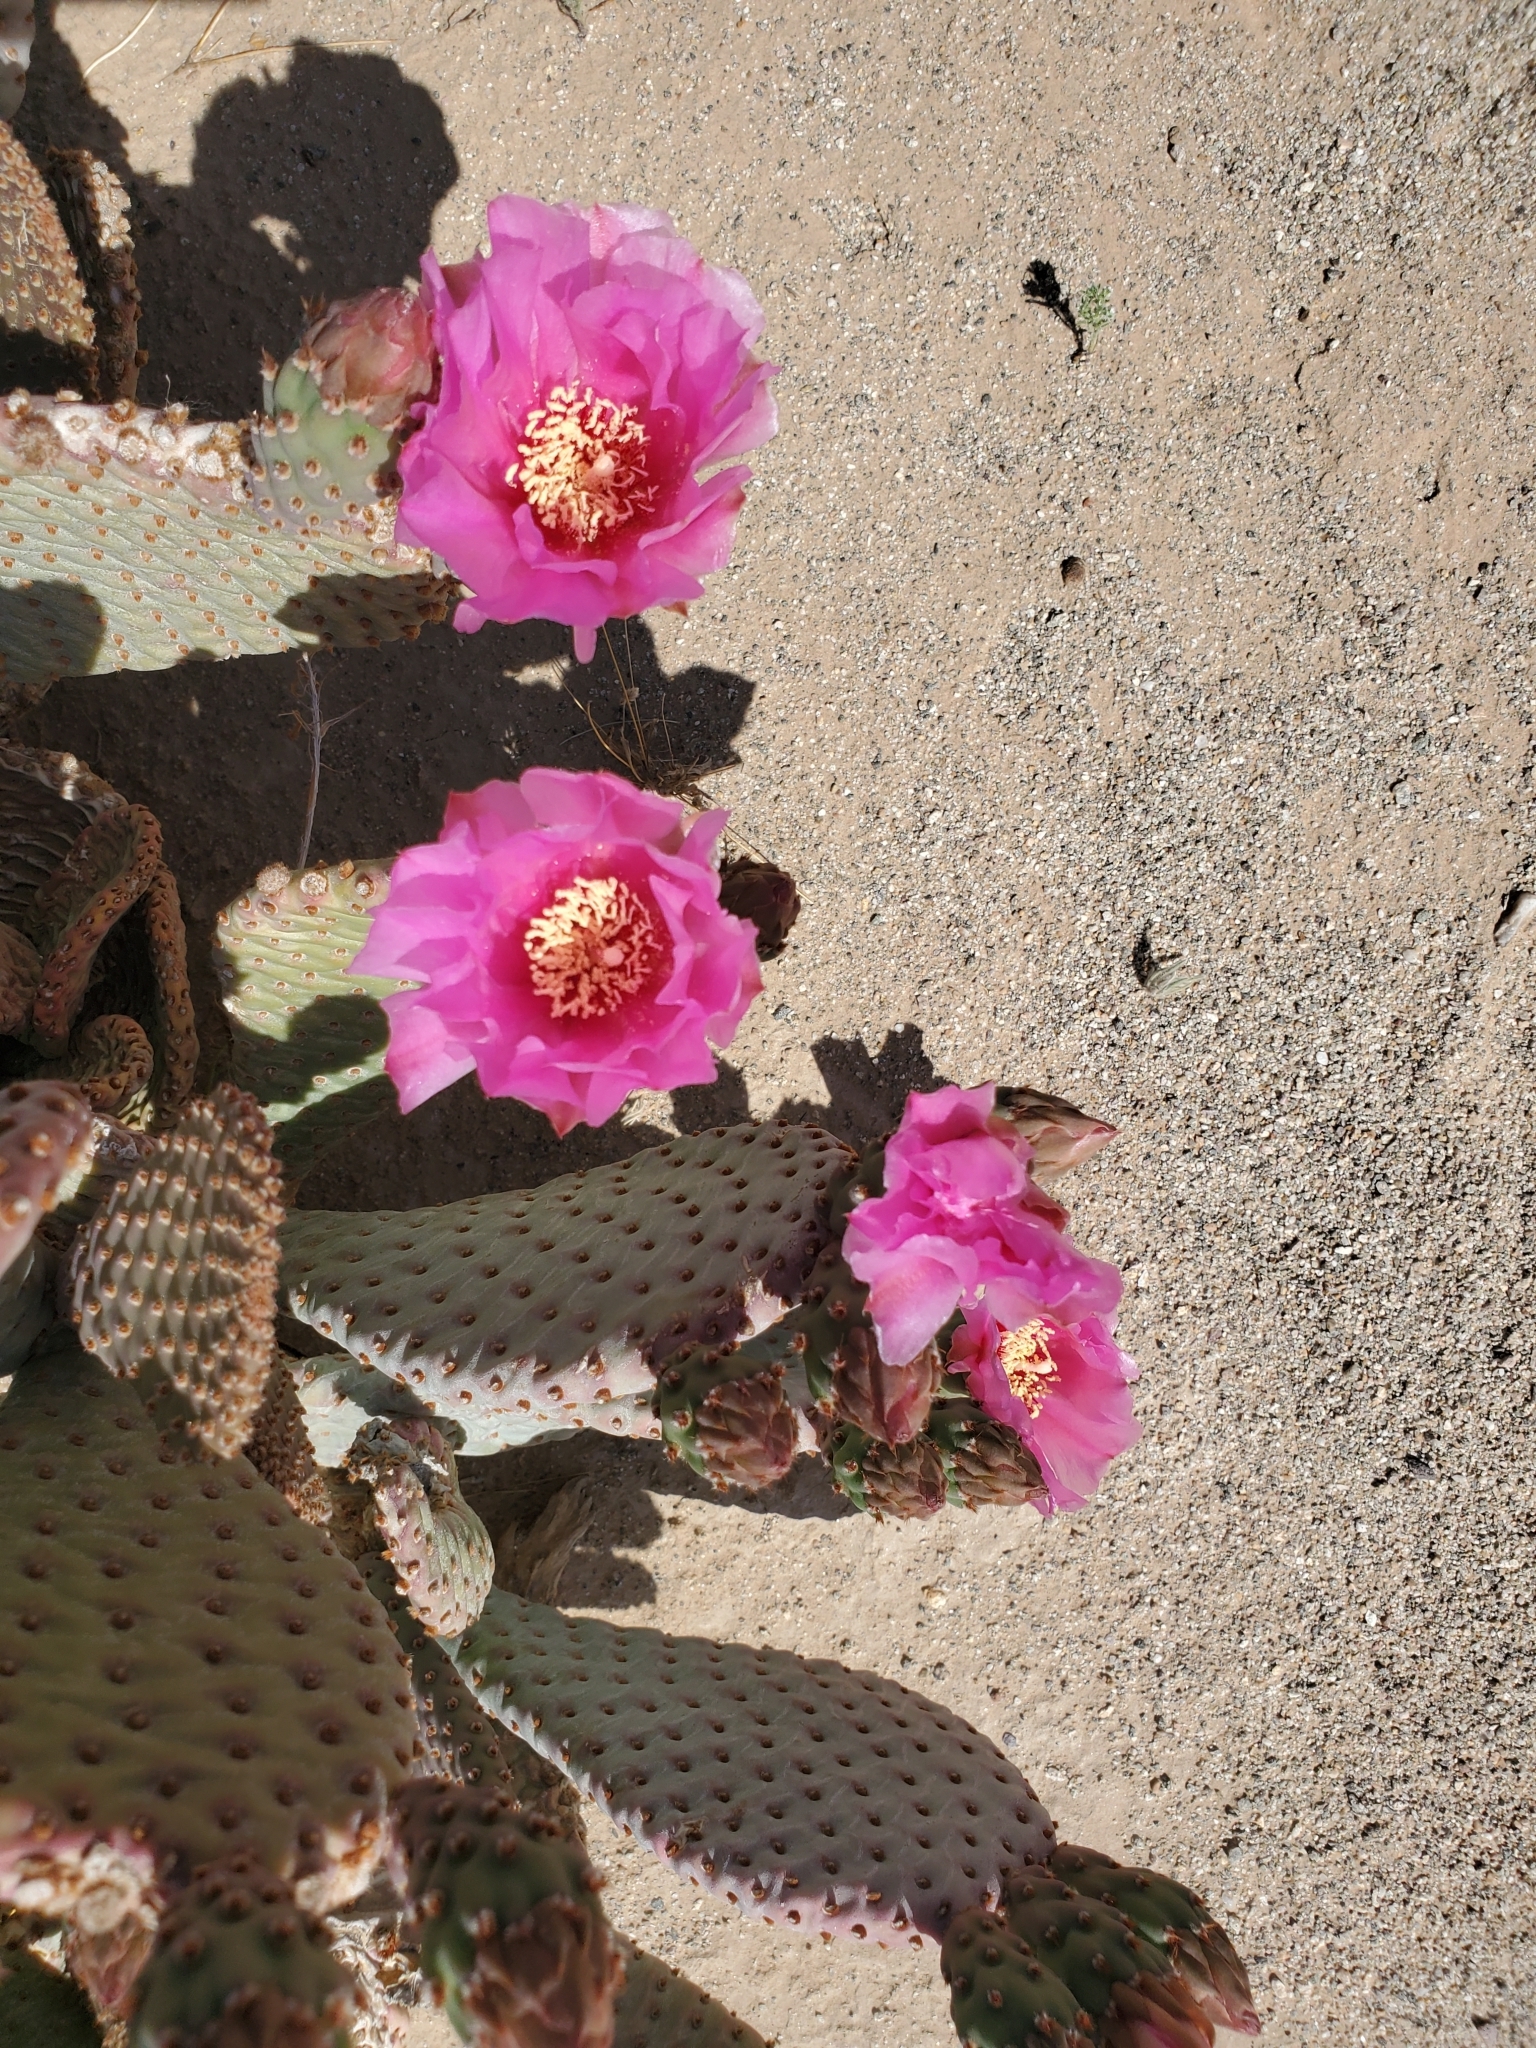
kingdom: Plantae
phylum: Tracheophyta
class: Magnoliopsida
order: Caryophyllales
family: Cactaceae
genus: Opuntia
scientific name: Opuntia basilaris
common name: Beavertail prickly-pear
